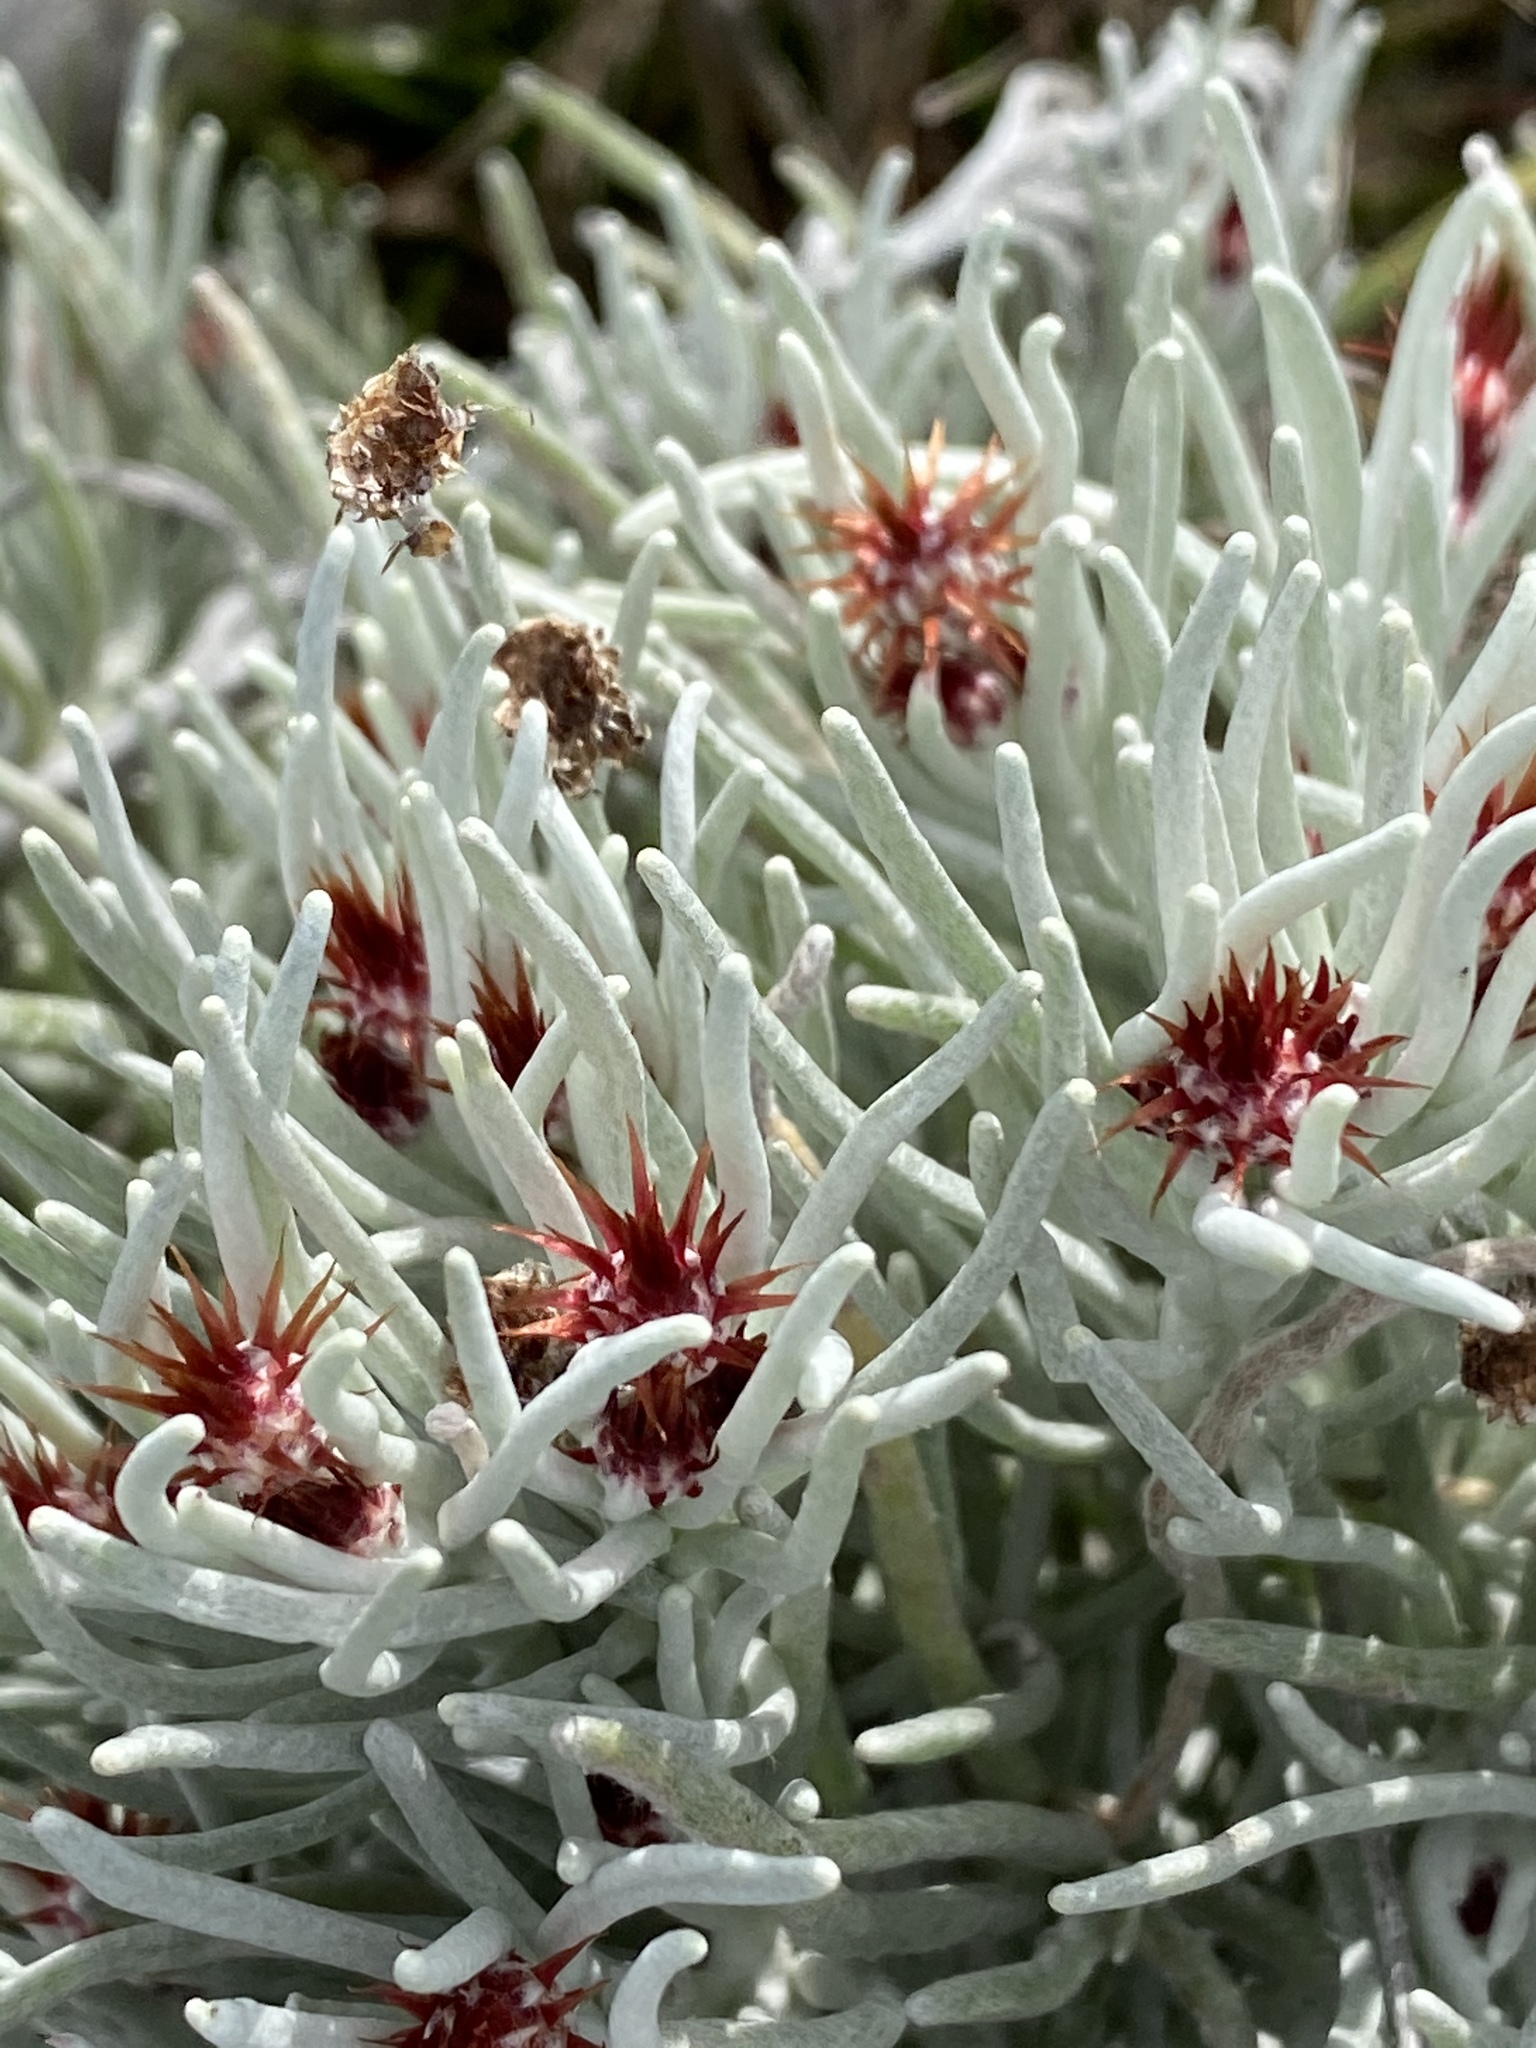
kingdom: Plantae
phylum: Tracheophyta
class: Magnoliopsida
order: Asterales
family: Asteraceae
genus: Syncarpha
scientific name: Syncarpha gnaphaloides
